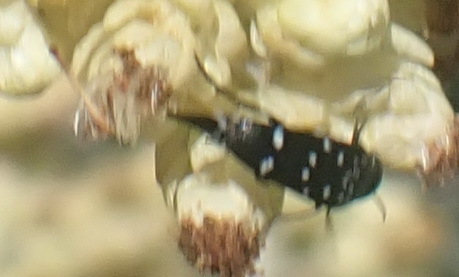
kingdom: Animalia
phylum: Arthropoda
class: Insecta
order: Coleoptera
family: Mordellidae
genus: Hoshihananomia
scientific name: Hoshihananomia
